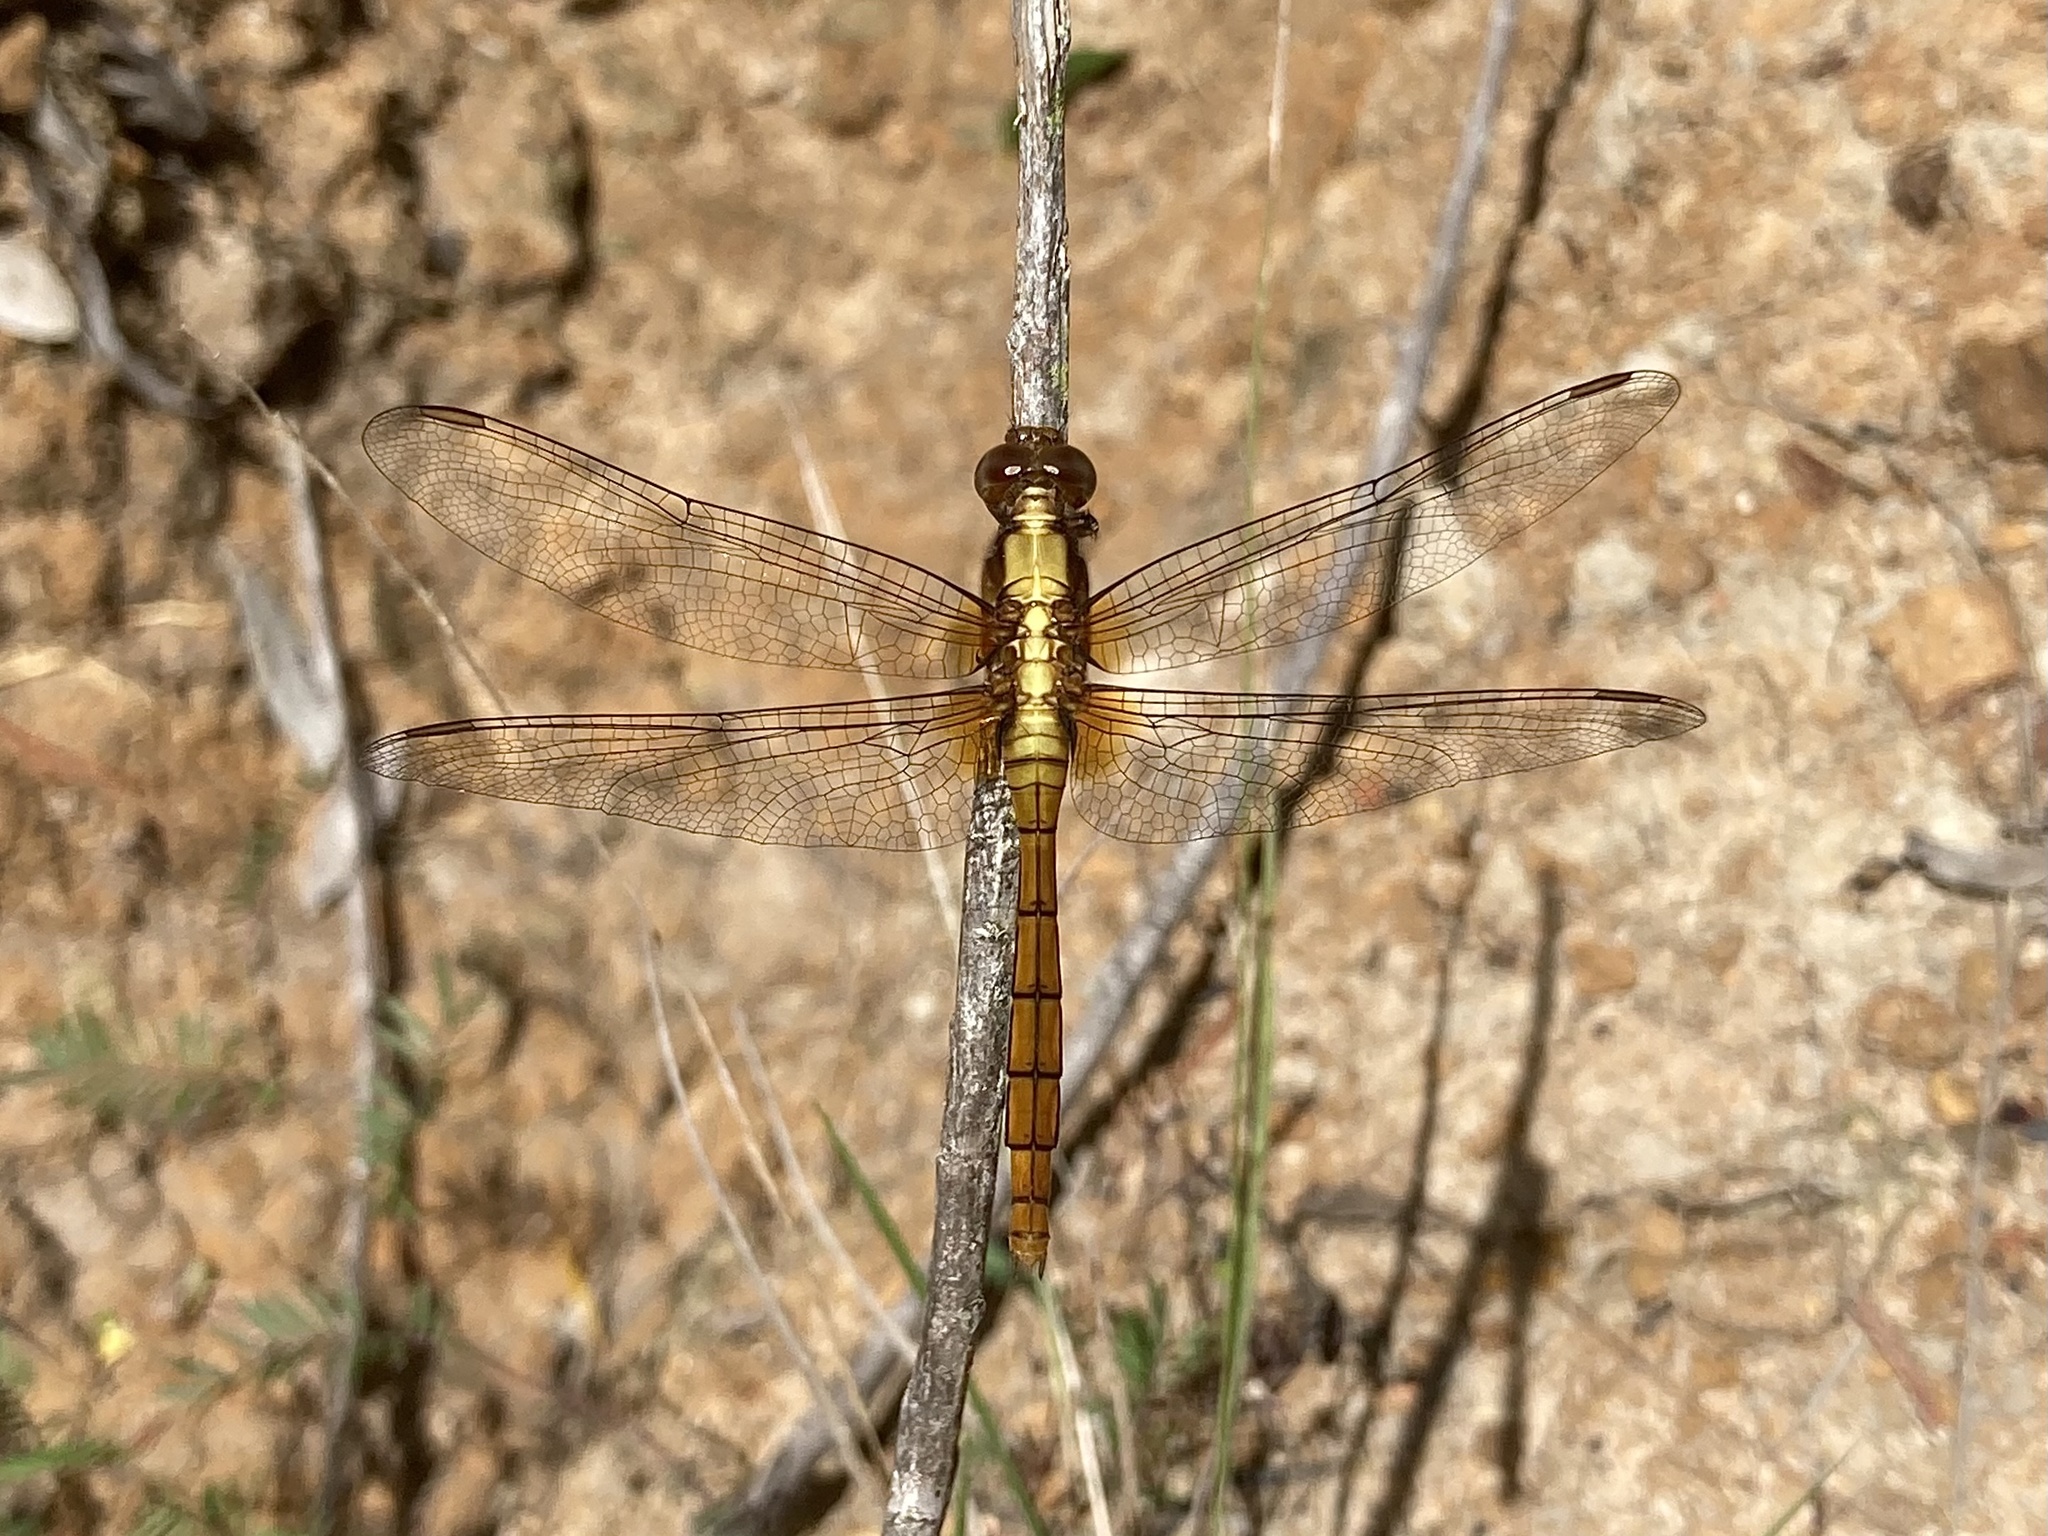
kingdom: Animalia
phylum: Arthropoda
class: Insecta
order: Odonata
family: Libellulidae
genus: Orthetrum
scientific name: Orthetrum villosovittatum
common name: Firery skimmer
